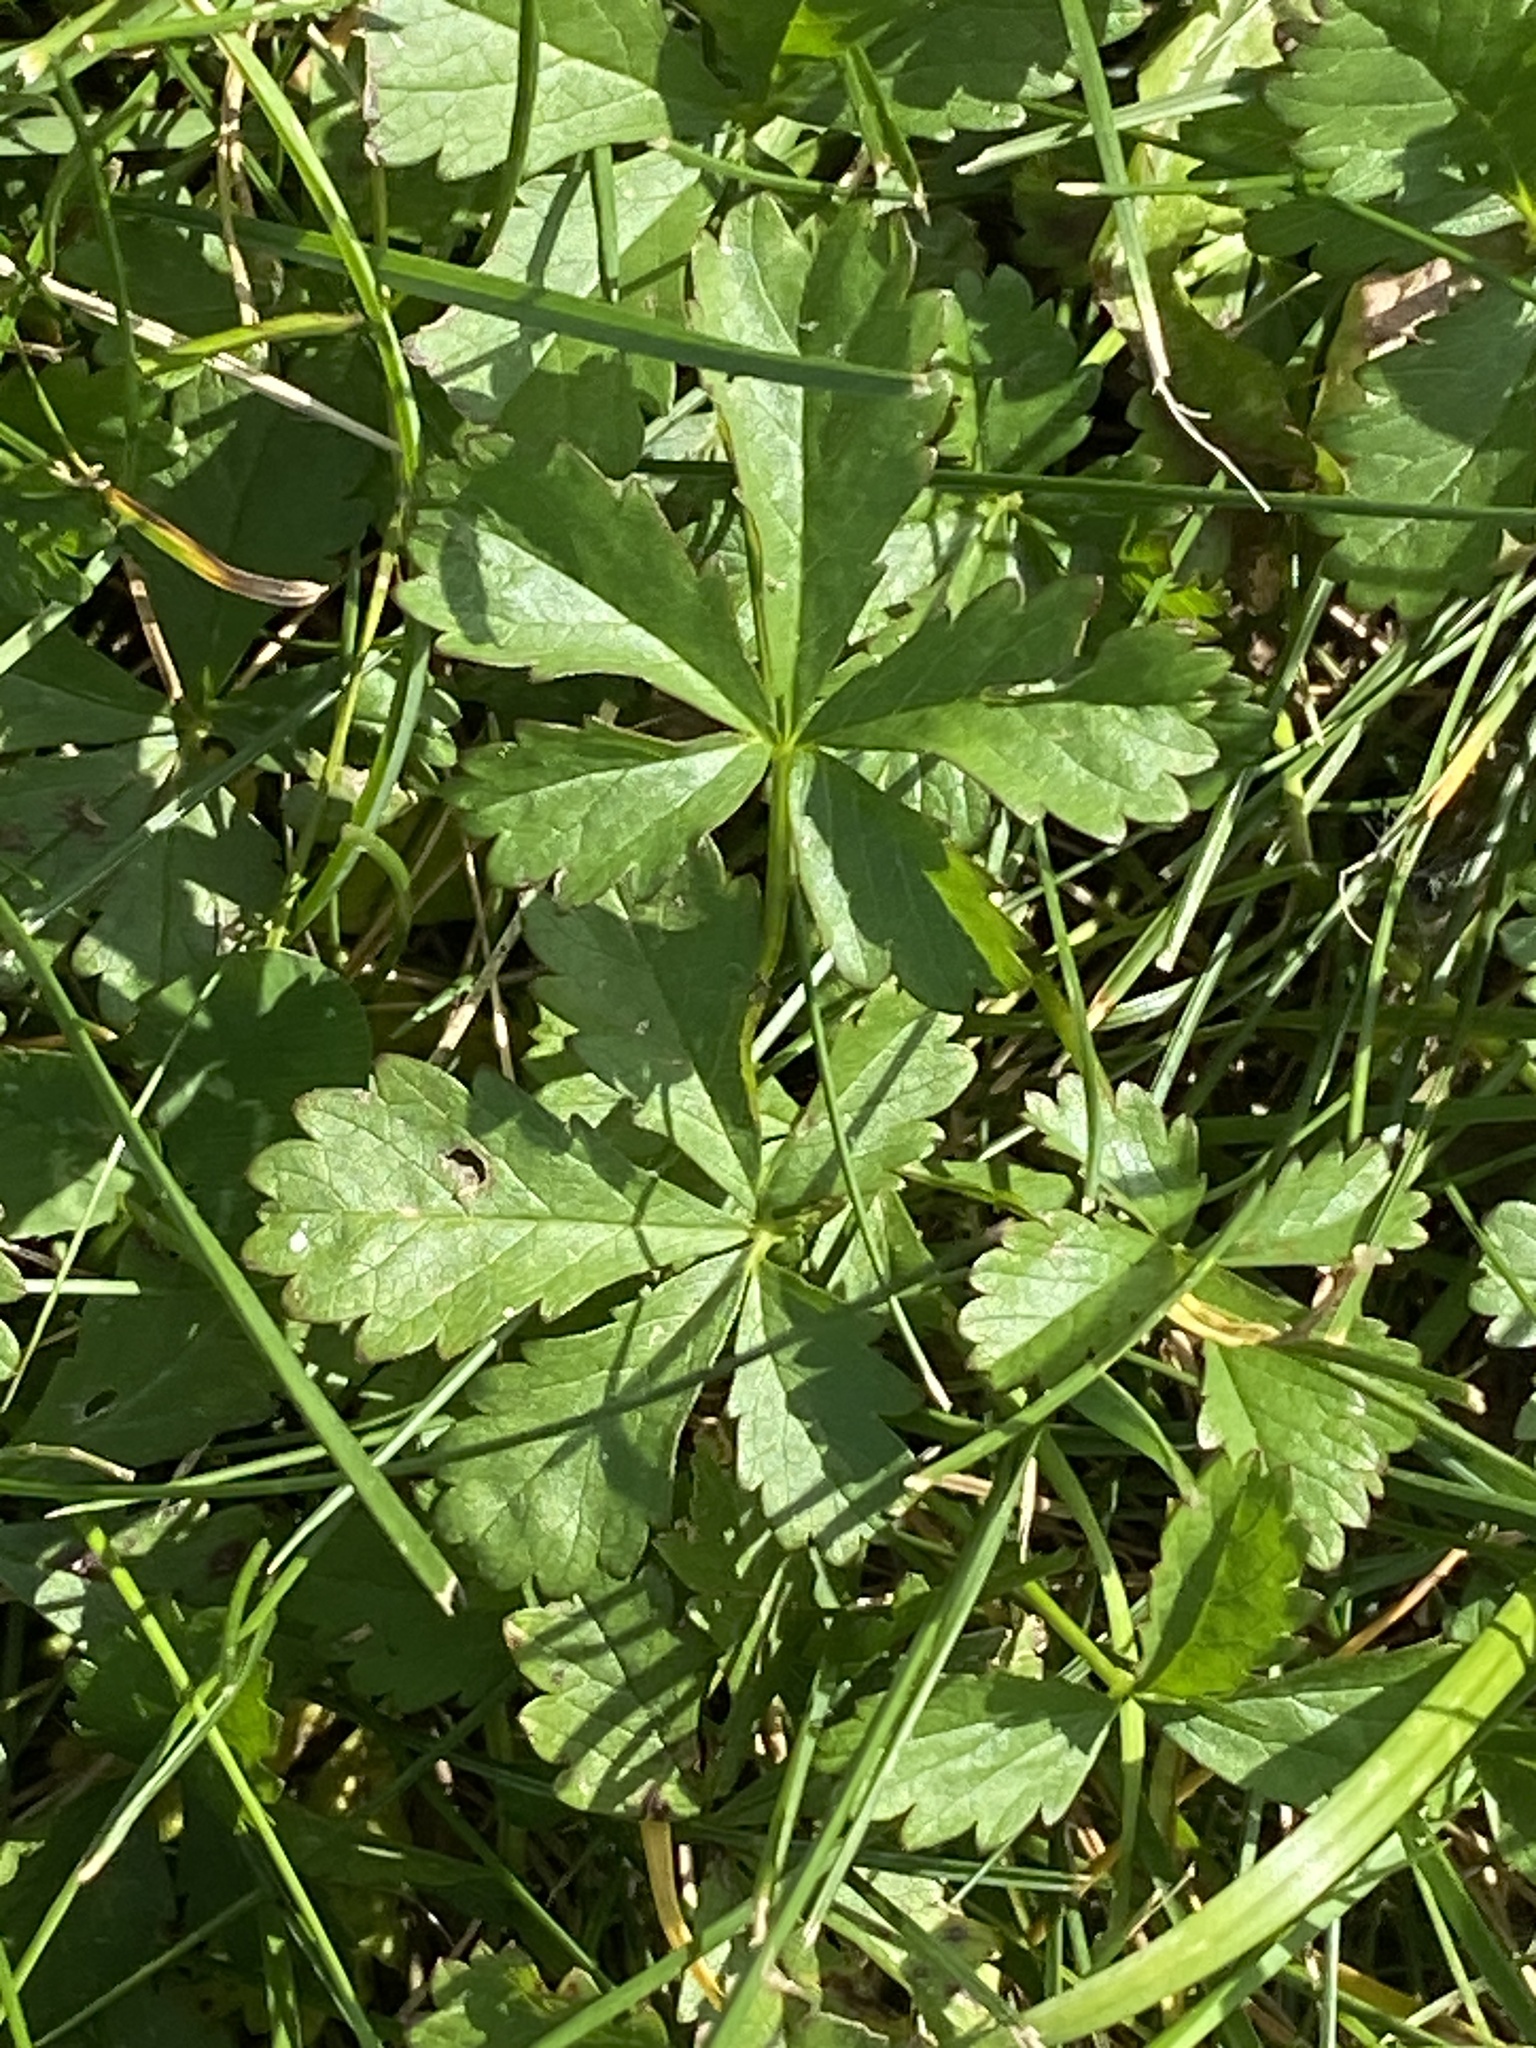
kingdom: Plantae
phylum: Tracheophyta
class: Magnoliopsida
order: Rosales
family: Rosaceae
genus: Potentilla
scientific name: Potentilla reptans
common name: Creeping cinquefoil
